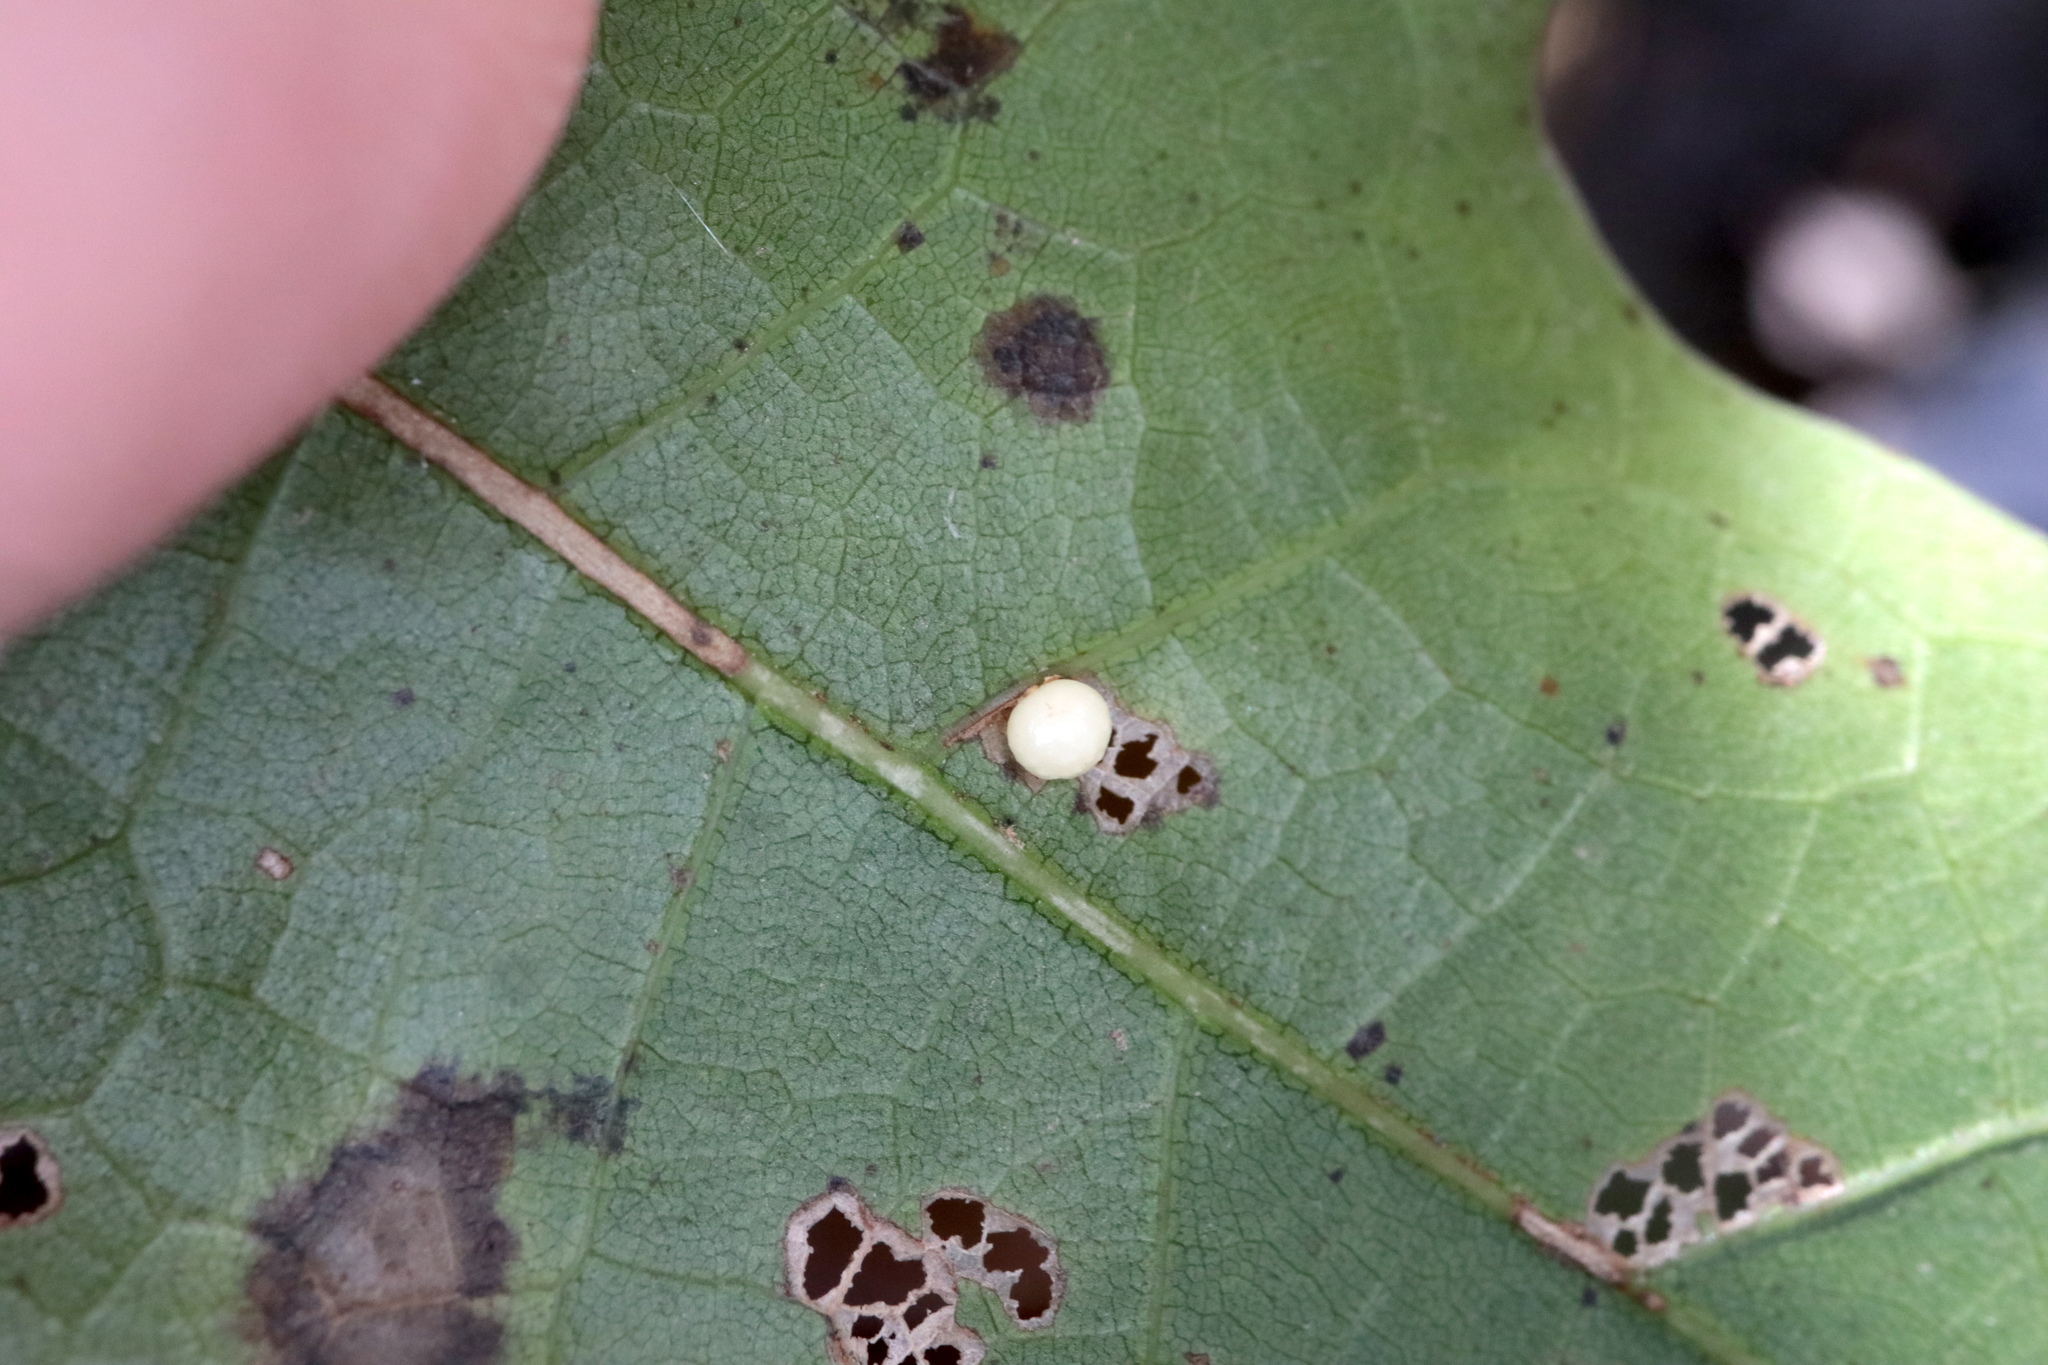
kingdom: Animalia
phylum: Arthropoda
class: Insecta
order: Hymenoptera
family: Cynipidae
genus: Zopheroteras
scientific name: Zopheroteras
